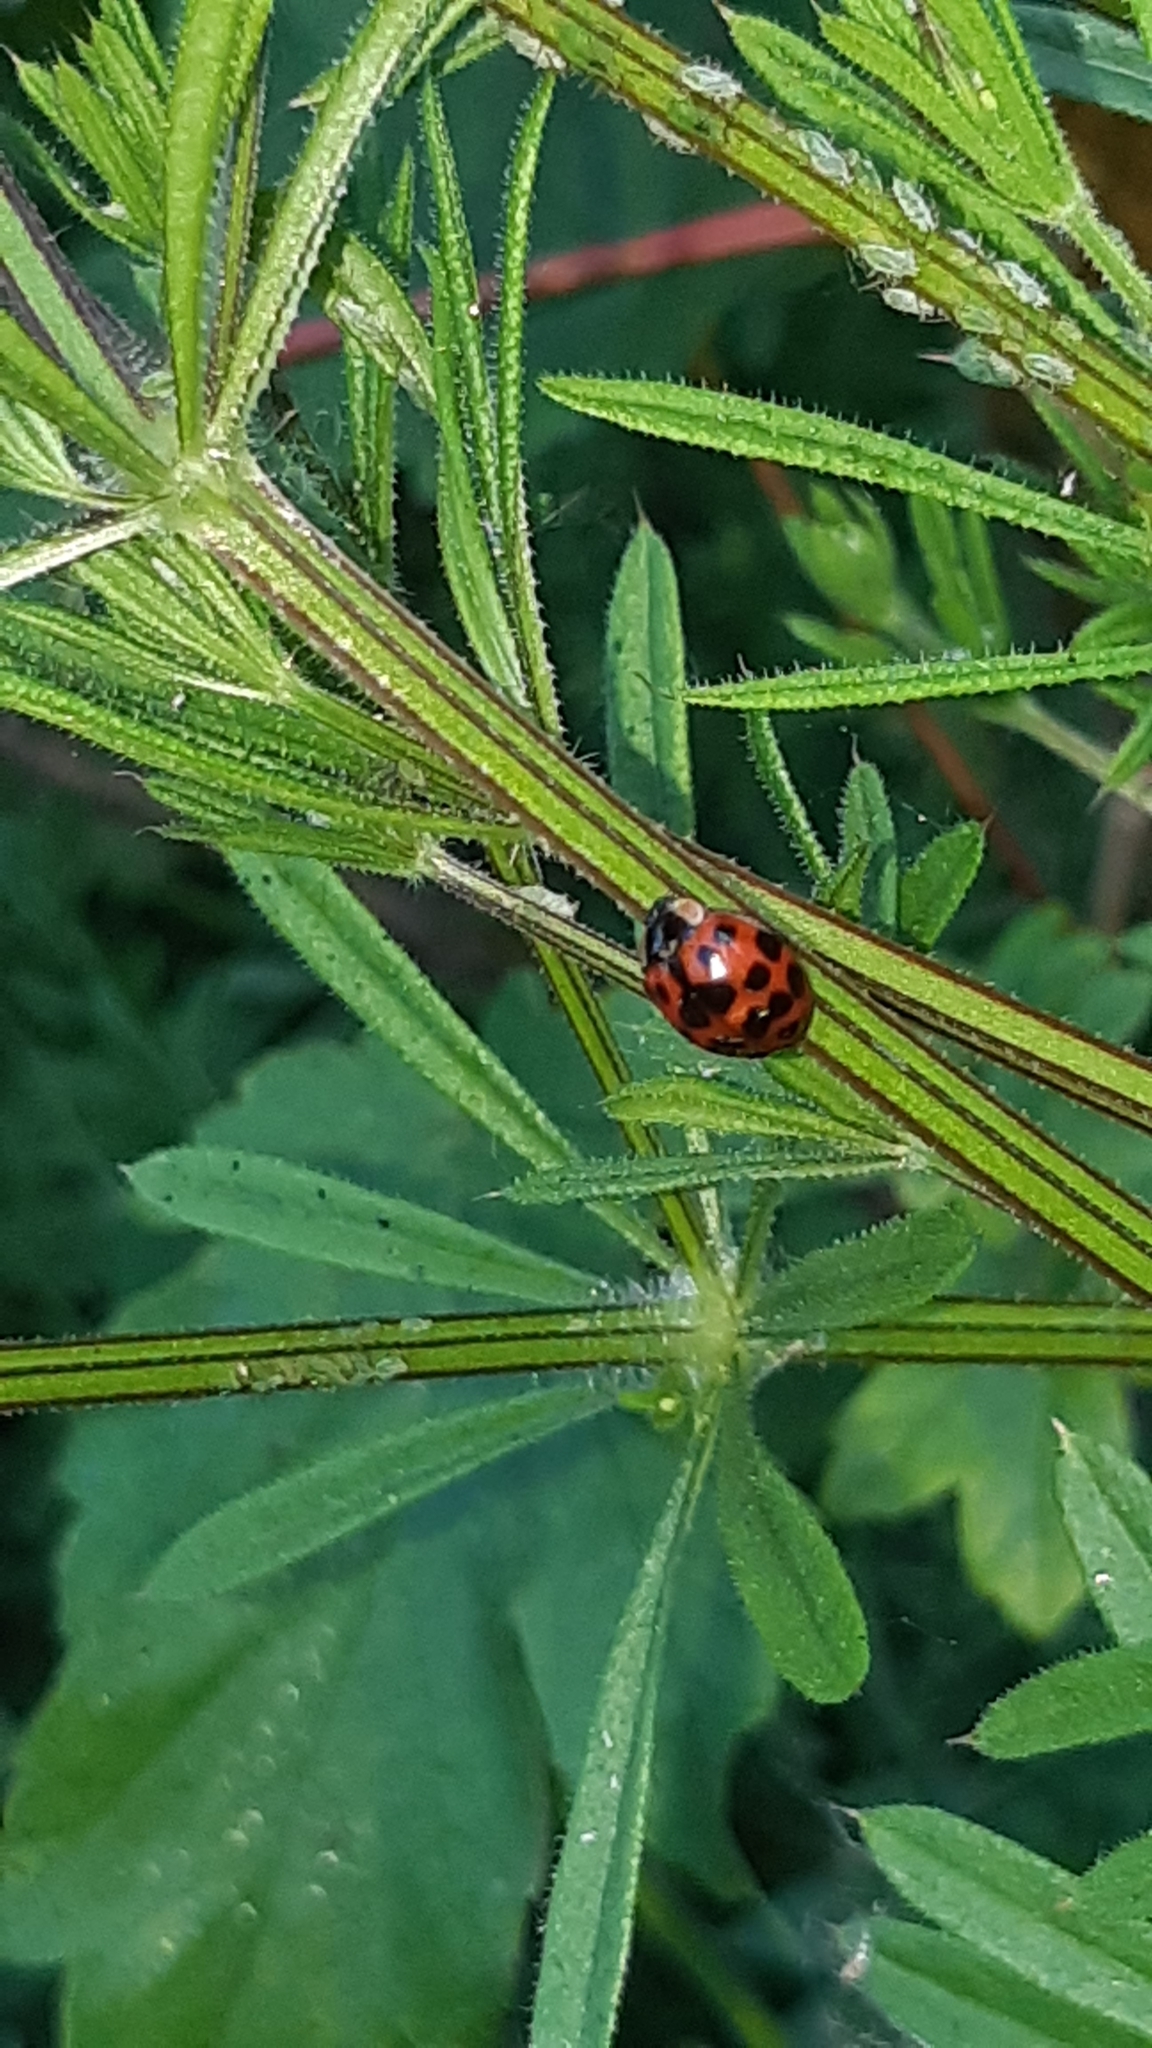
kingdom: Animalia
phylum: Arthropoda
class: Insecta
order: Coleoptera
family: Coccinellidae
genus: Harmonia
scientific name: Harmonia axyridis
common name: Harlequin ladybird
